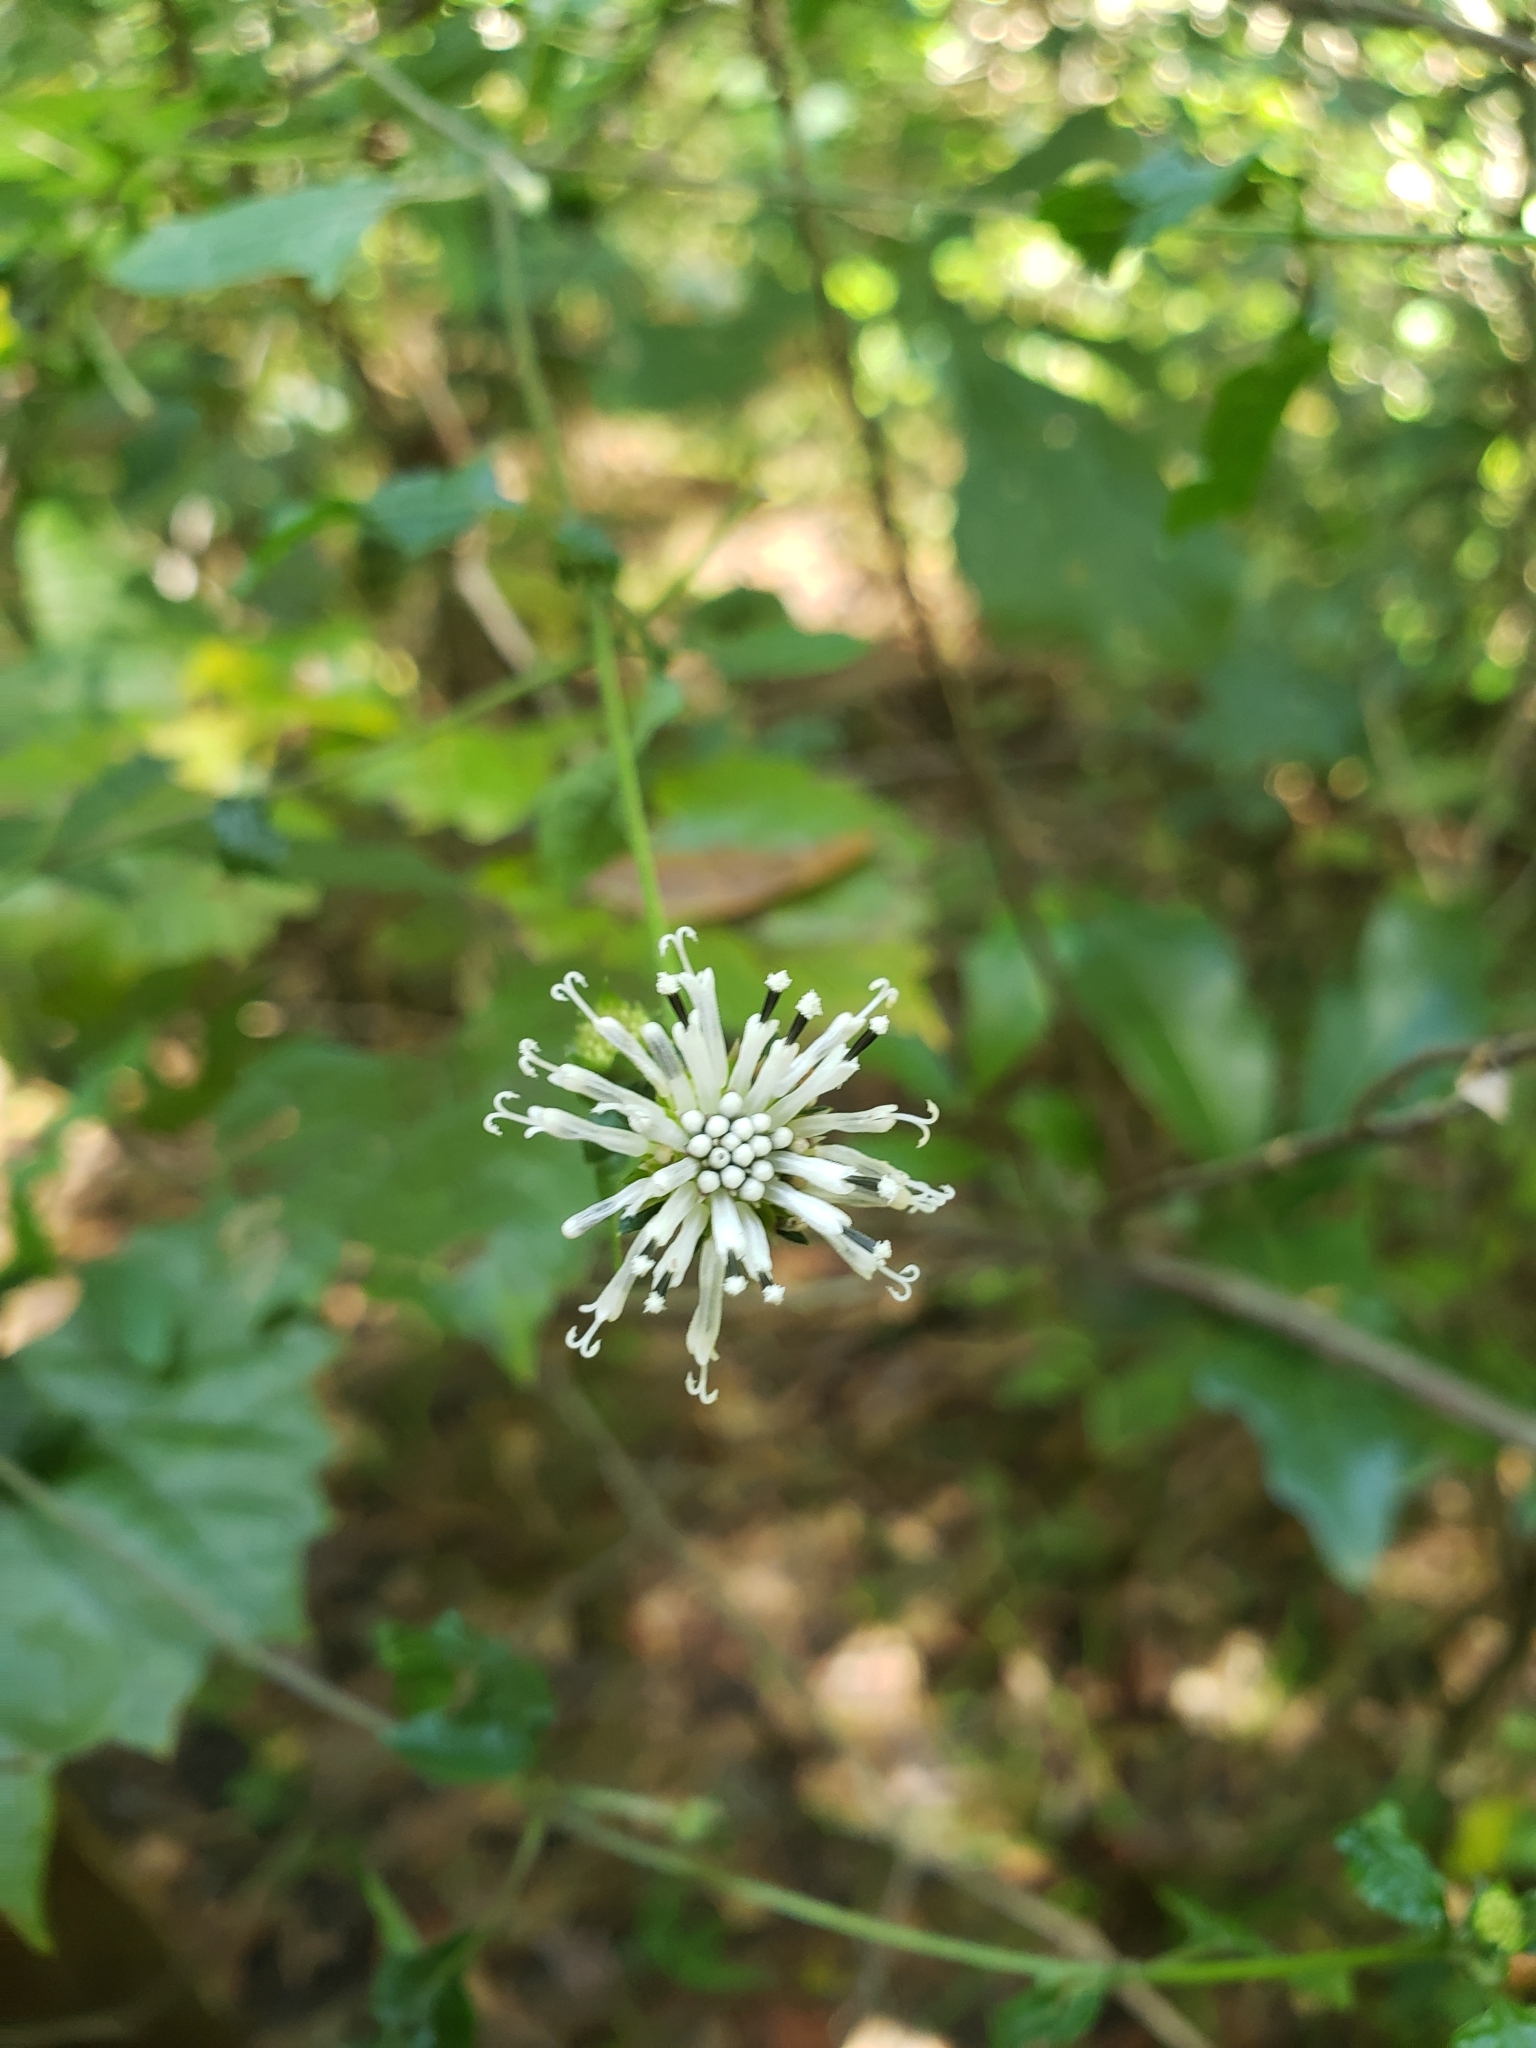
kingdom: Plantae
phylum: Tracheophyta
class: Magnoliopsida
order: Asterales
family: Asteraceae
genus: Melanthera
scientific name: Melanthera nivea
